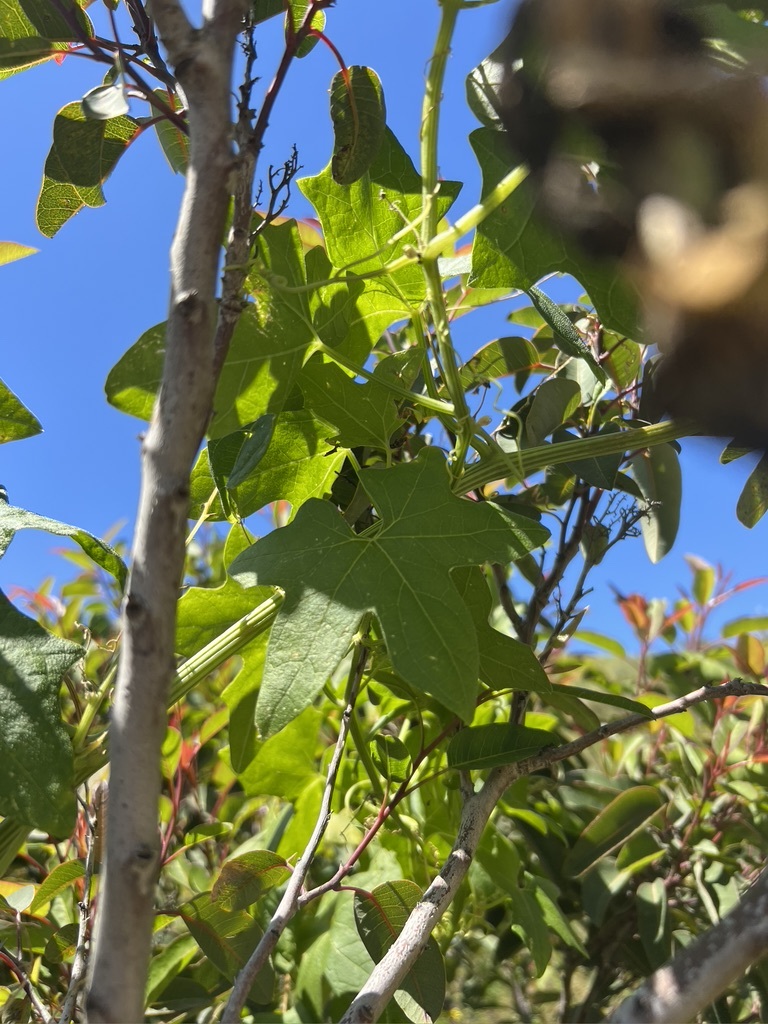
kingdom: Plantae
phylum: Tracheophyta
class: Magnoliopsida
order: Cucurbitales
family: Cucurbitaceae
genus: Marah
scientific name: Marah macrocarpa
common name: Cucamonga manroot
